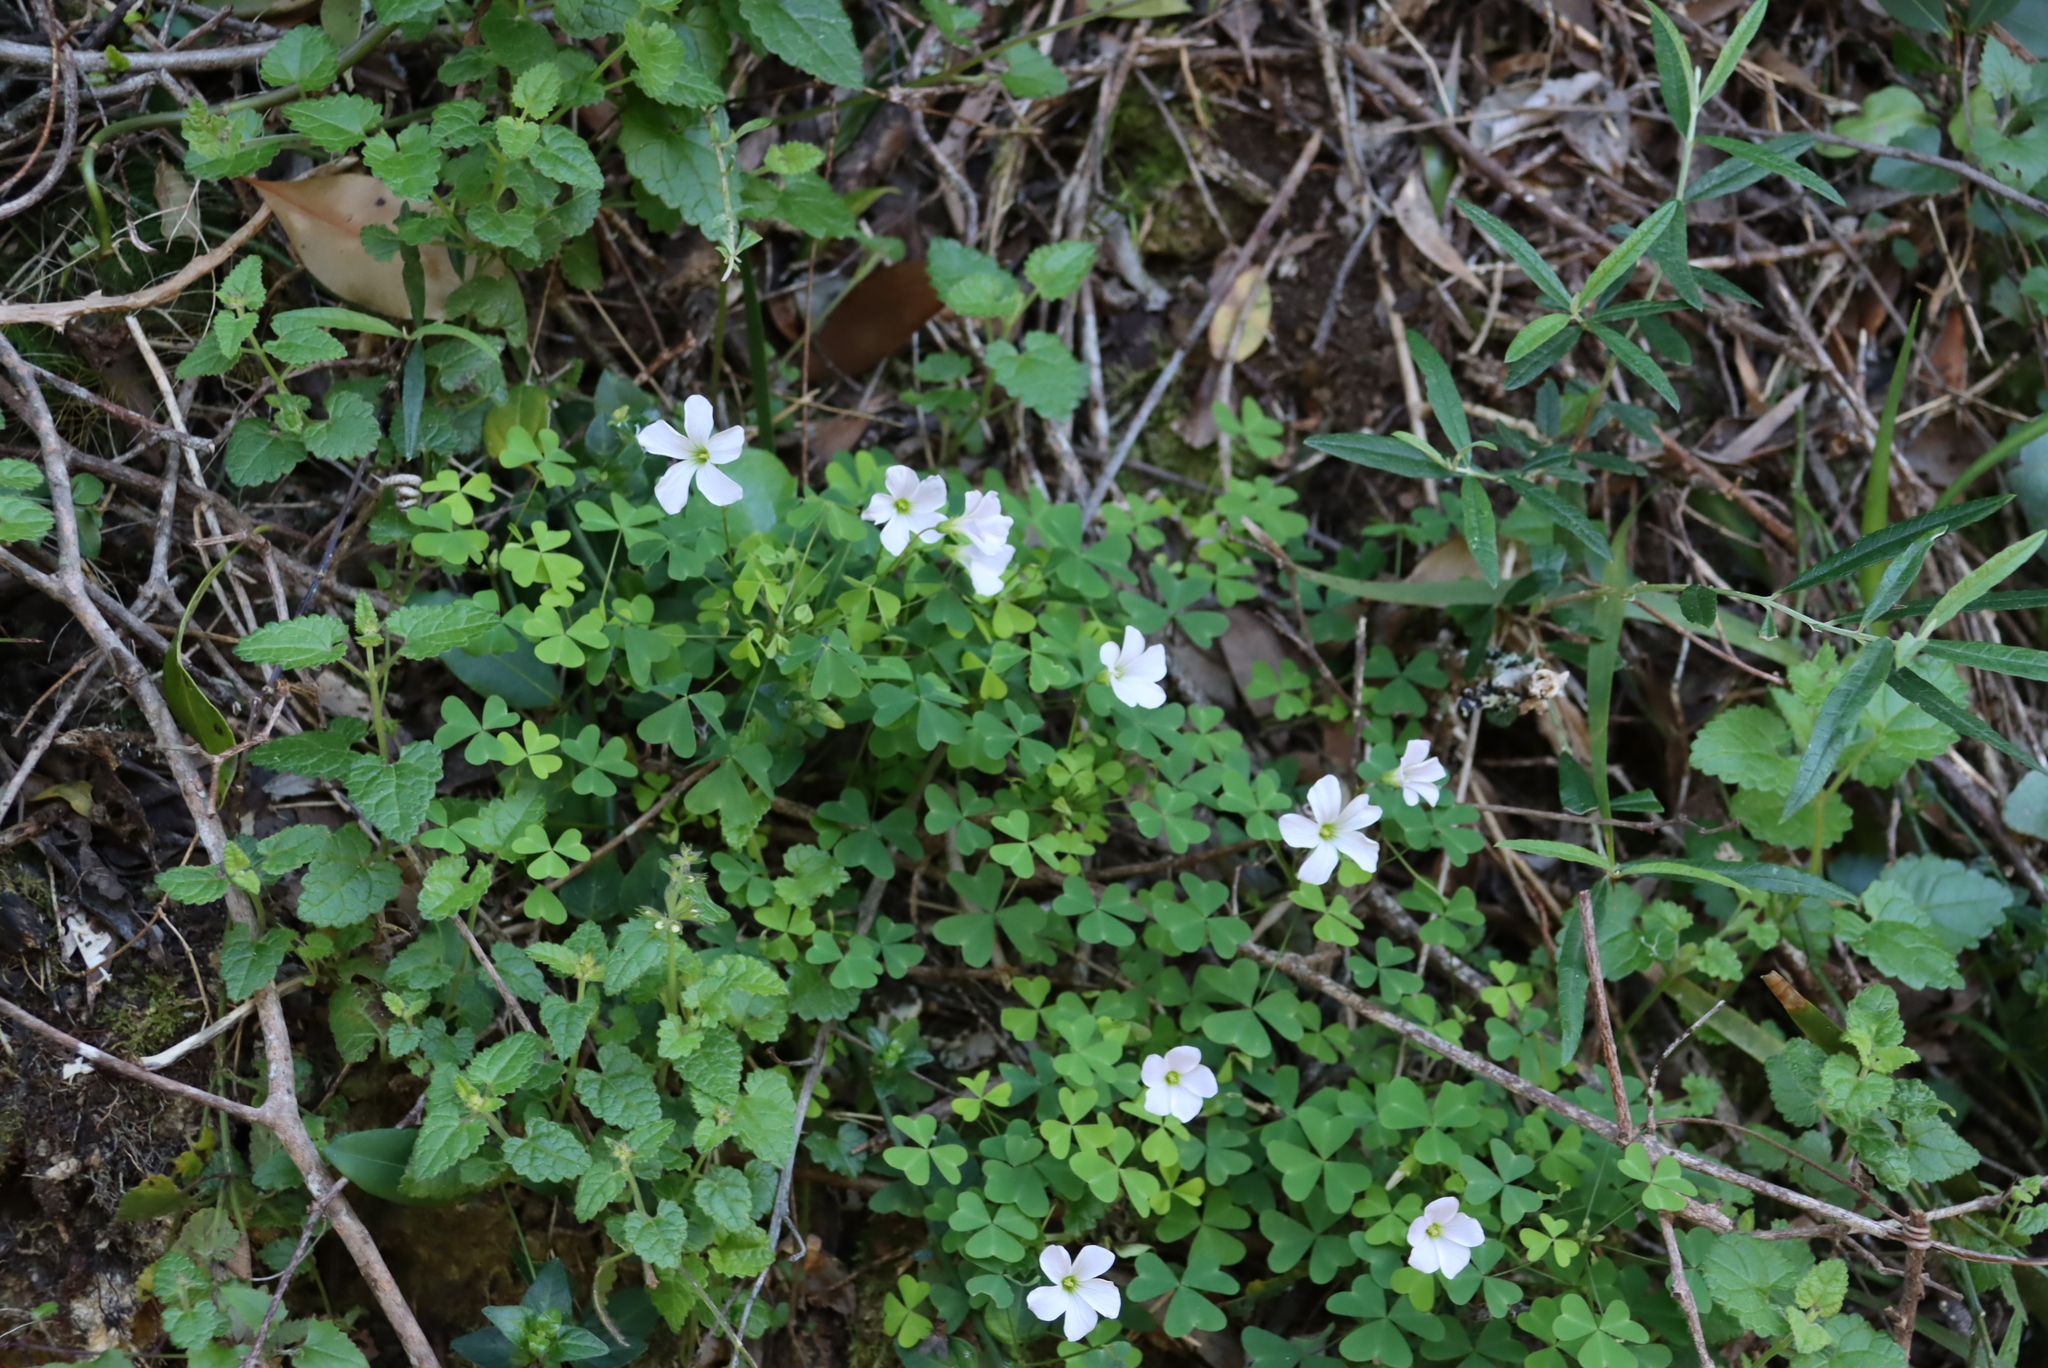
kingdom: Plantae
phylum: Tracheophyta
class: Magnoliopsida
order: Oxalidales
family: Oxalidaceae
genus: Oxalis
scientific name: Oxalis incarnata
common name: Pale pink-sorrel
